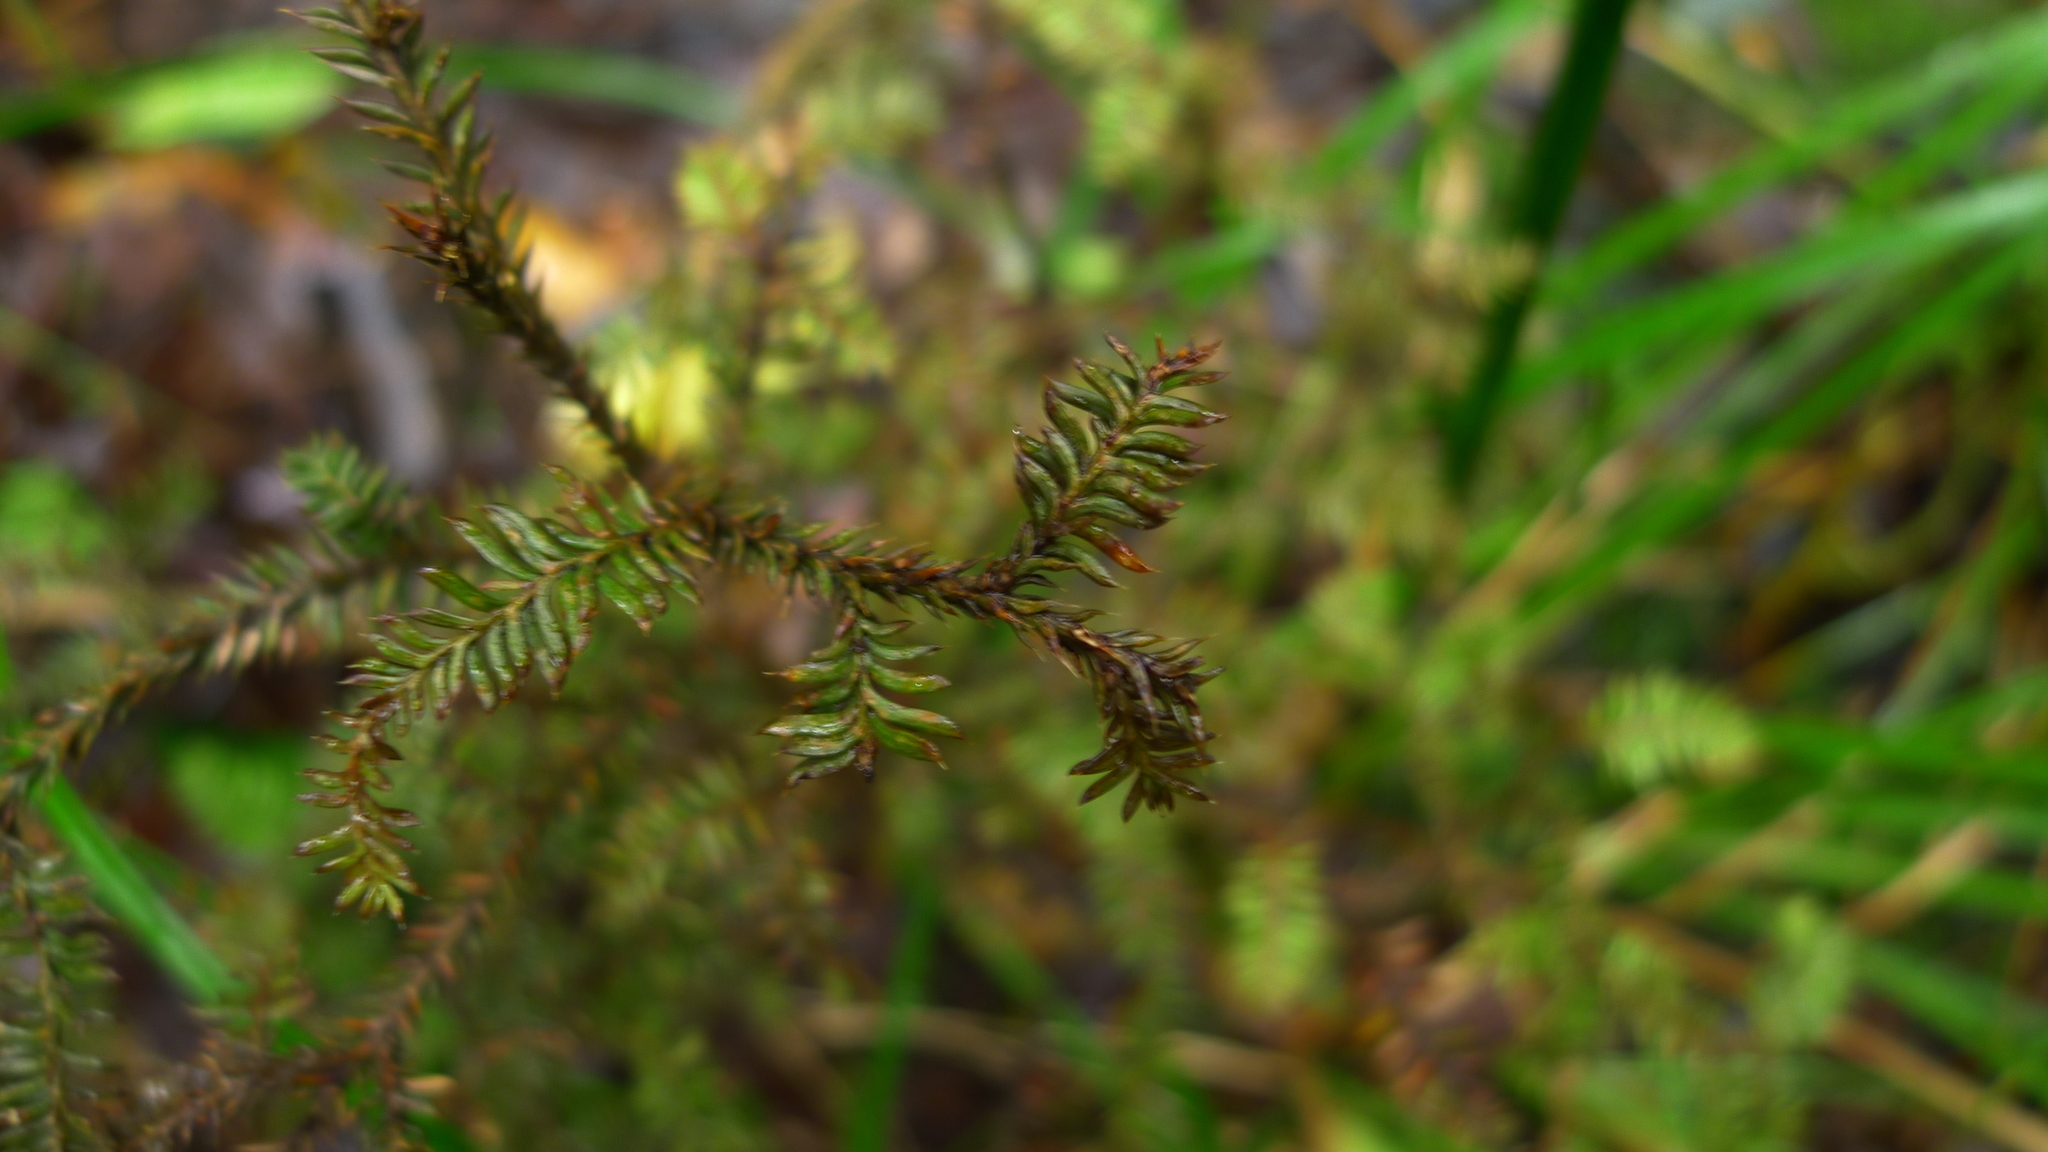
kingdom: Plantae
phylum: Tracheophyta
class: Pinopsida
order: Pinales
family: Podocarpaceae
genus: Dacrycarpus
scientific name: Dacrycarpus dacrydioides
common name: White pine
